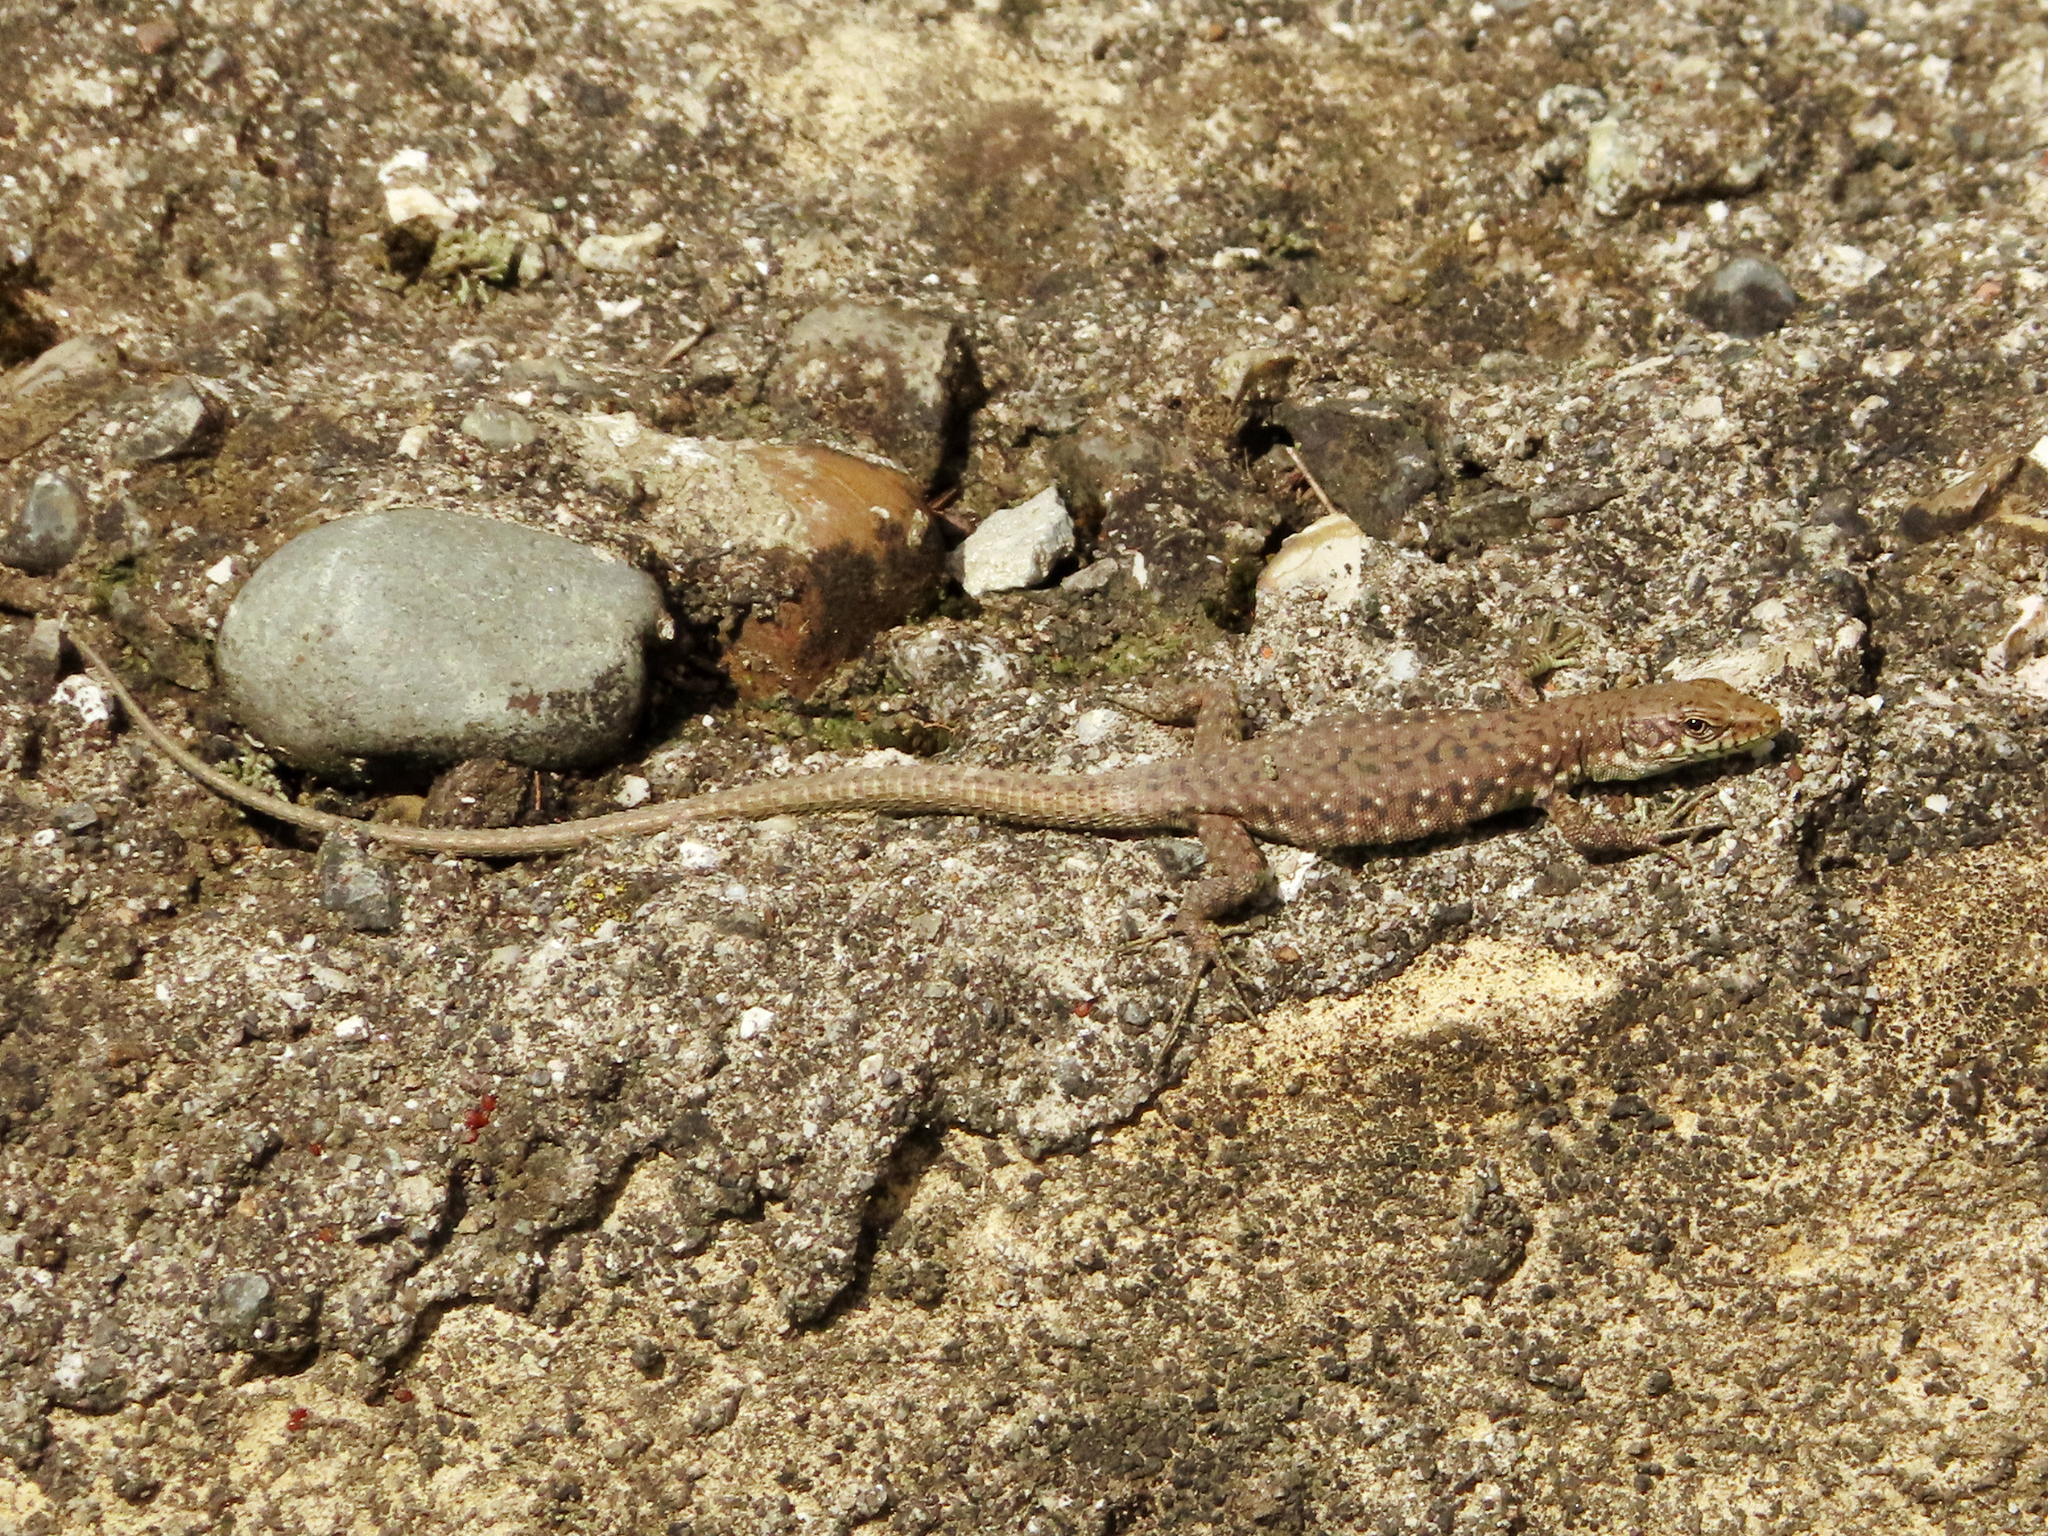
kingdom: Animalia
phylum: Chordata
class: Squamata
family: Lacertidae
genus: Darevskia
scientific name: Darevskia rudis
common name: Spiny-tailed lizard
